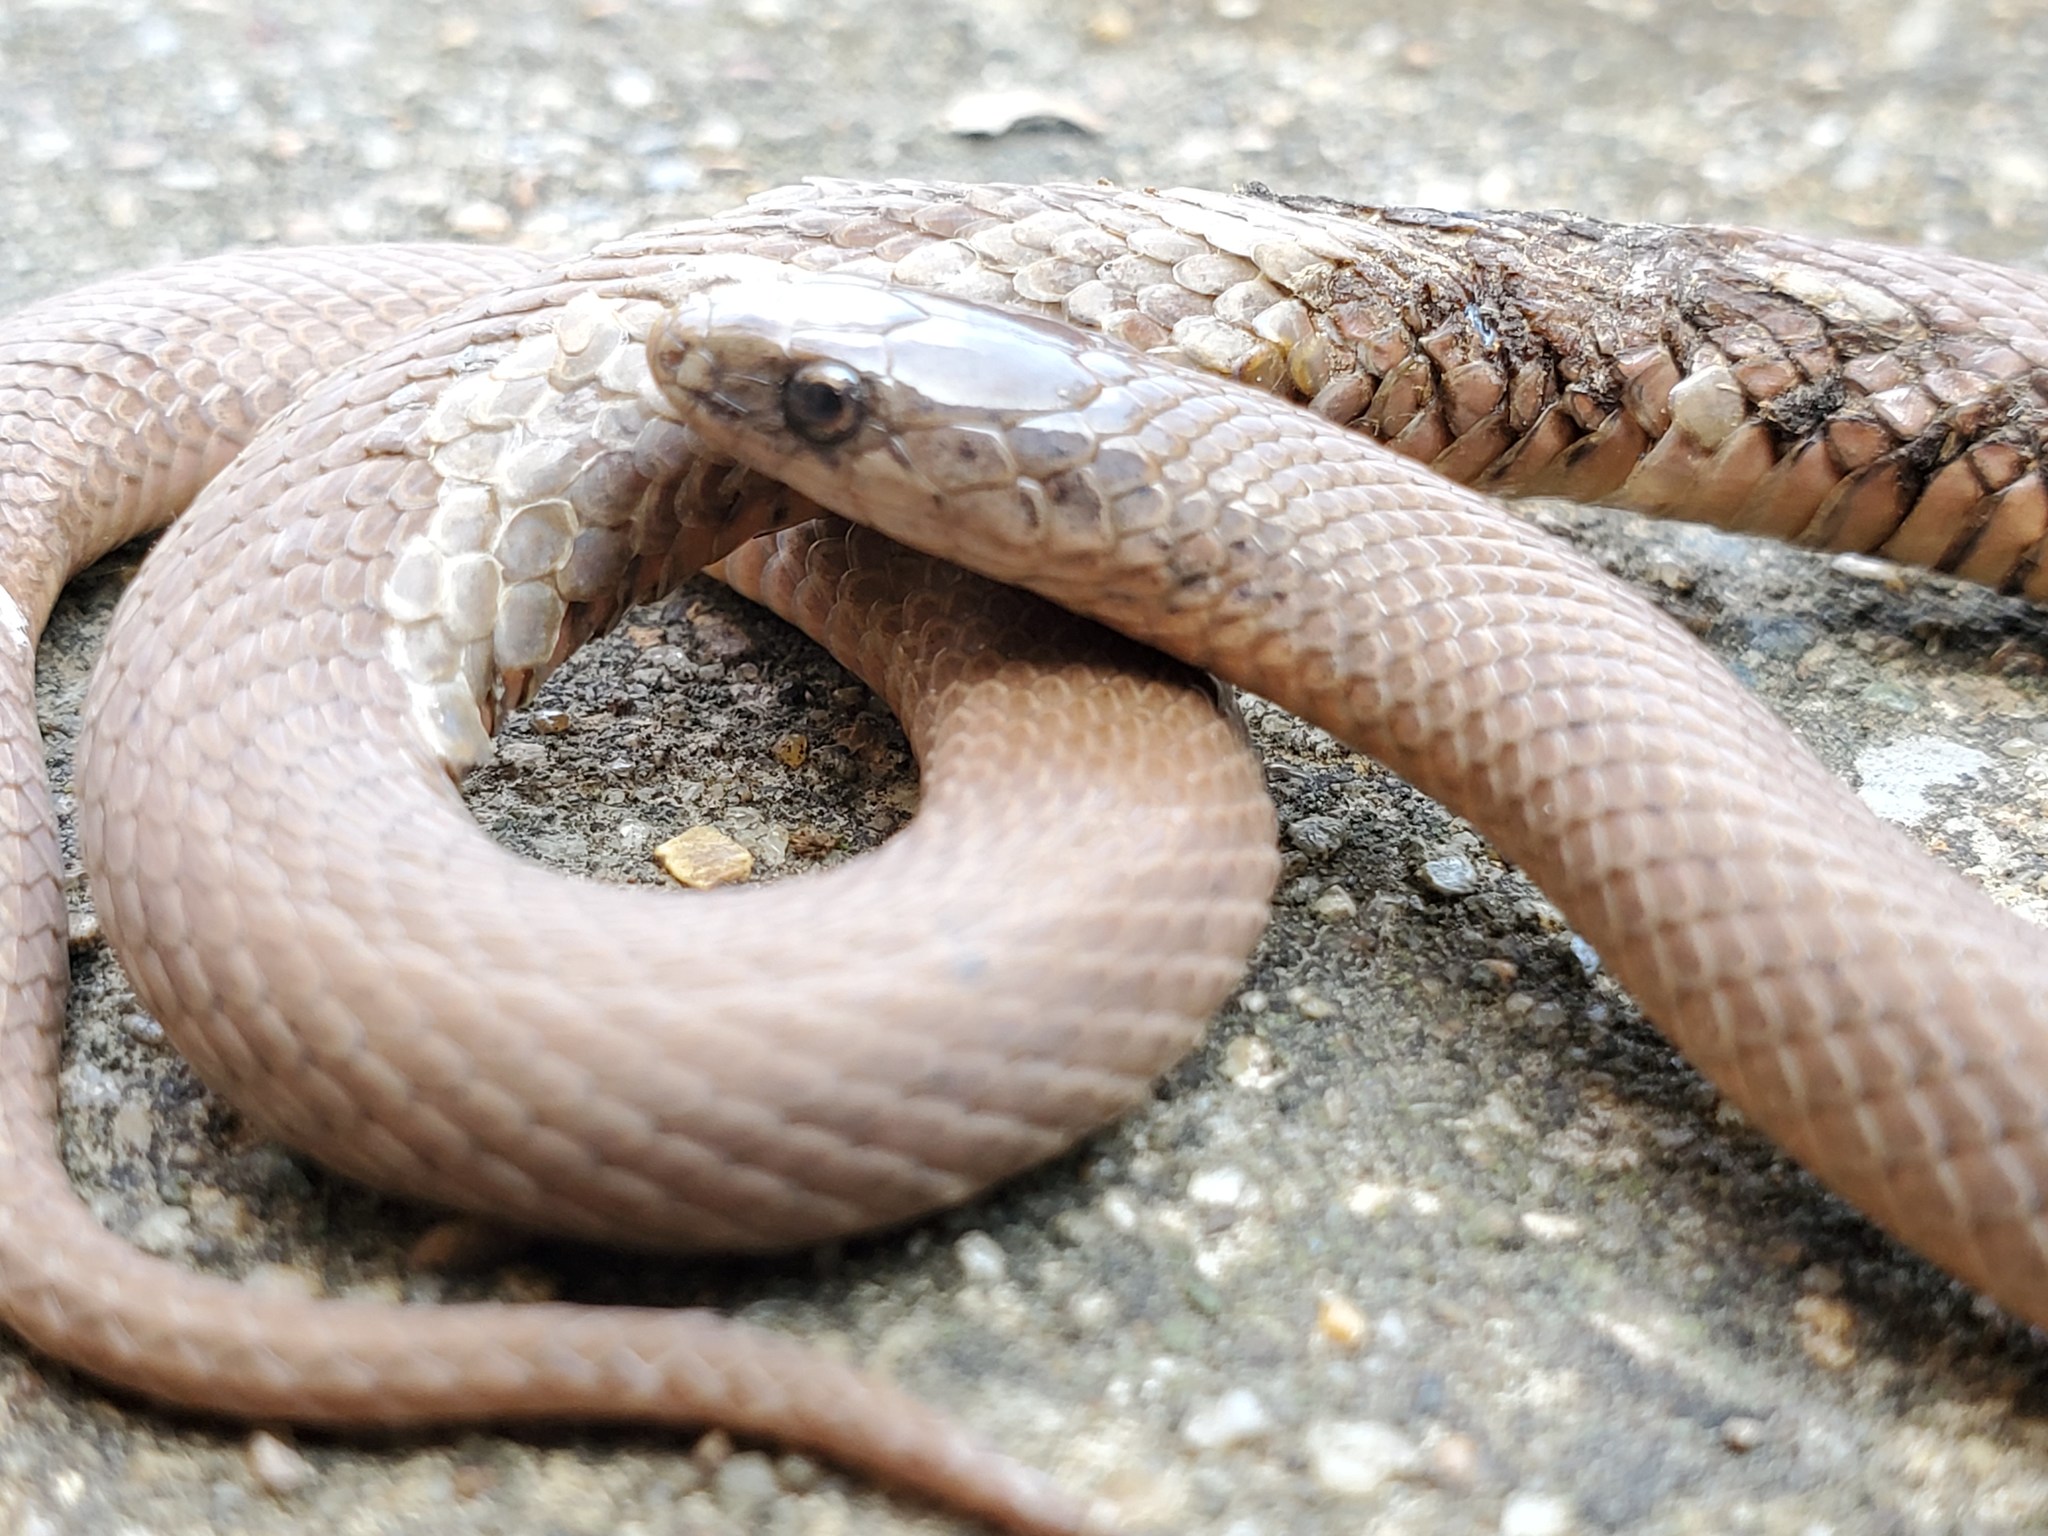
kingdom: Animalia
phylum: Chordata
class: Squamata
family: Colubridae
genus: Virginia
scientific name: Virginia valeriae
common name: Smooth earth snake
